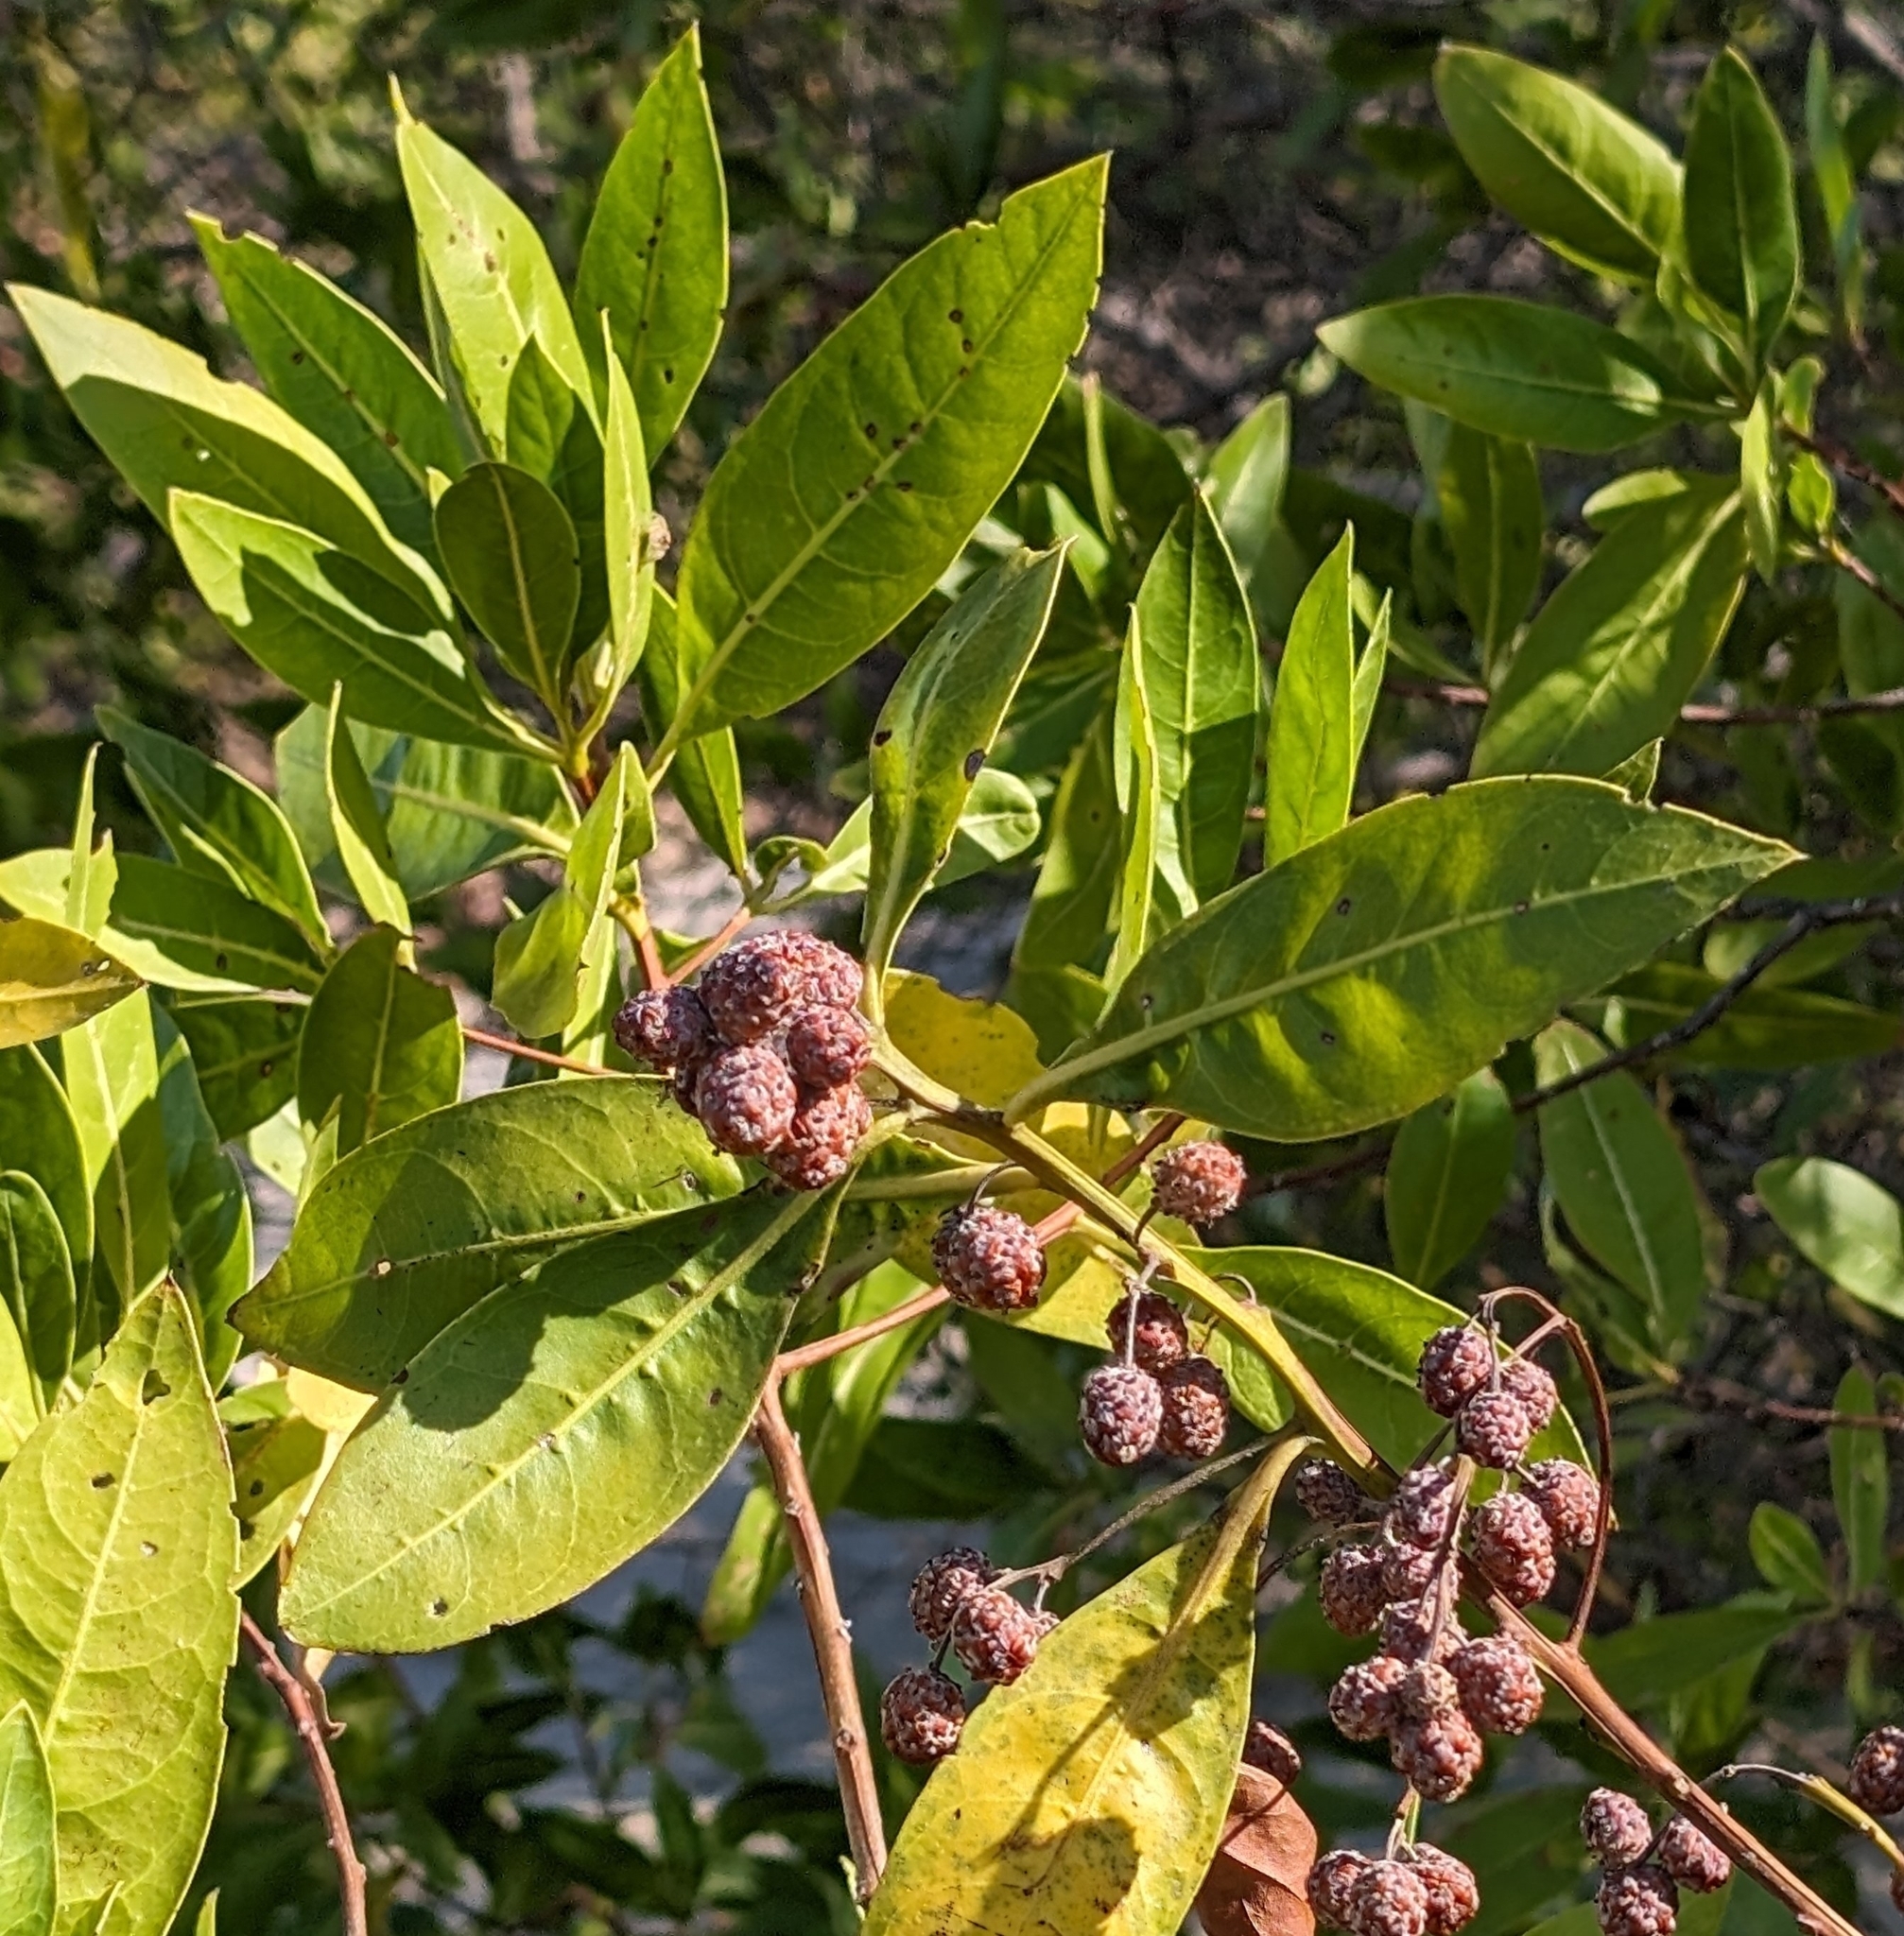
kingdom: Plantae
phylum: Tracheophyta
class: Magnoliopsida
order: Myrtales
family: Combretaceae
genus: Conocarpus
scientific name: Conocarpus erectus
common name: Button mangrove
